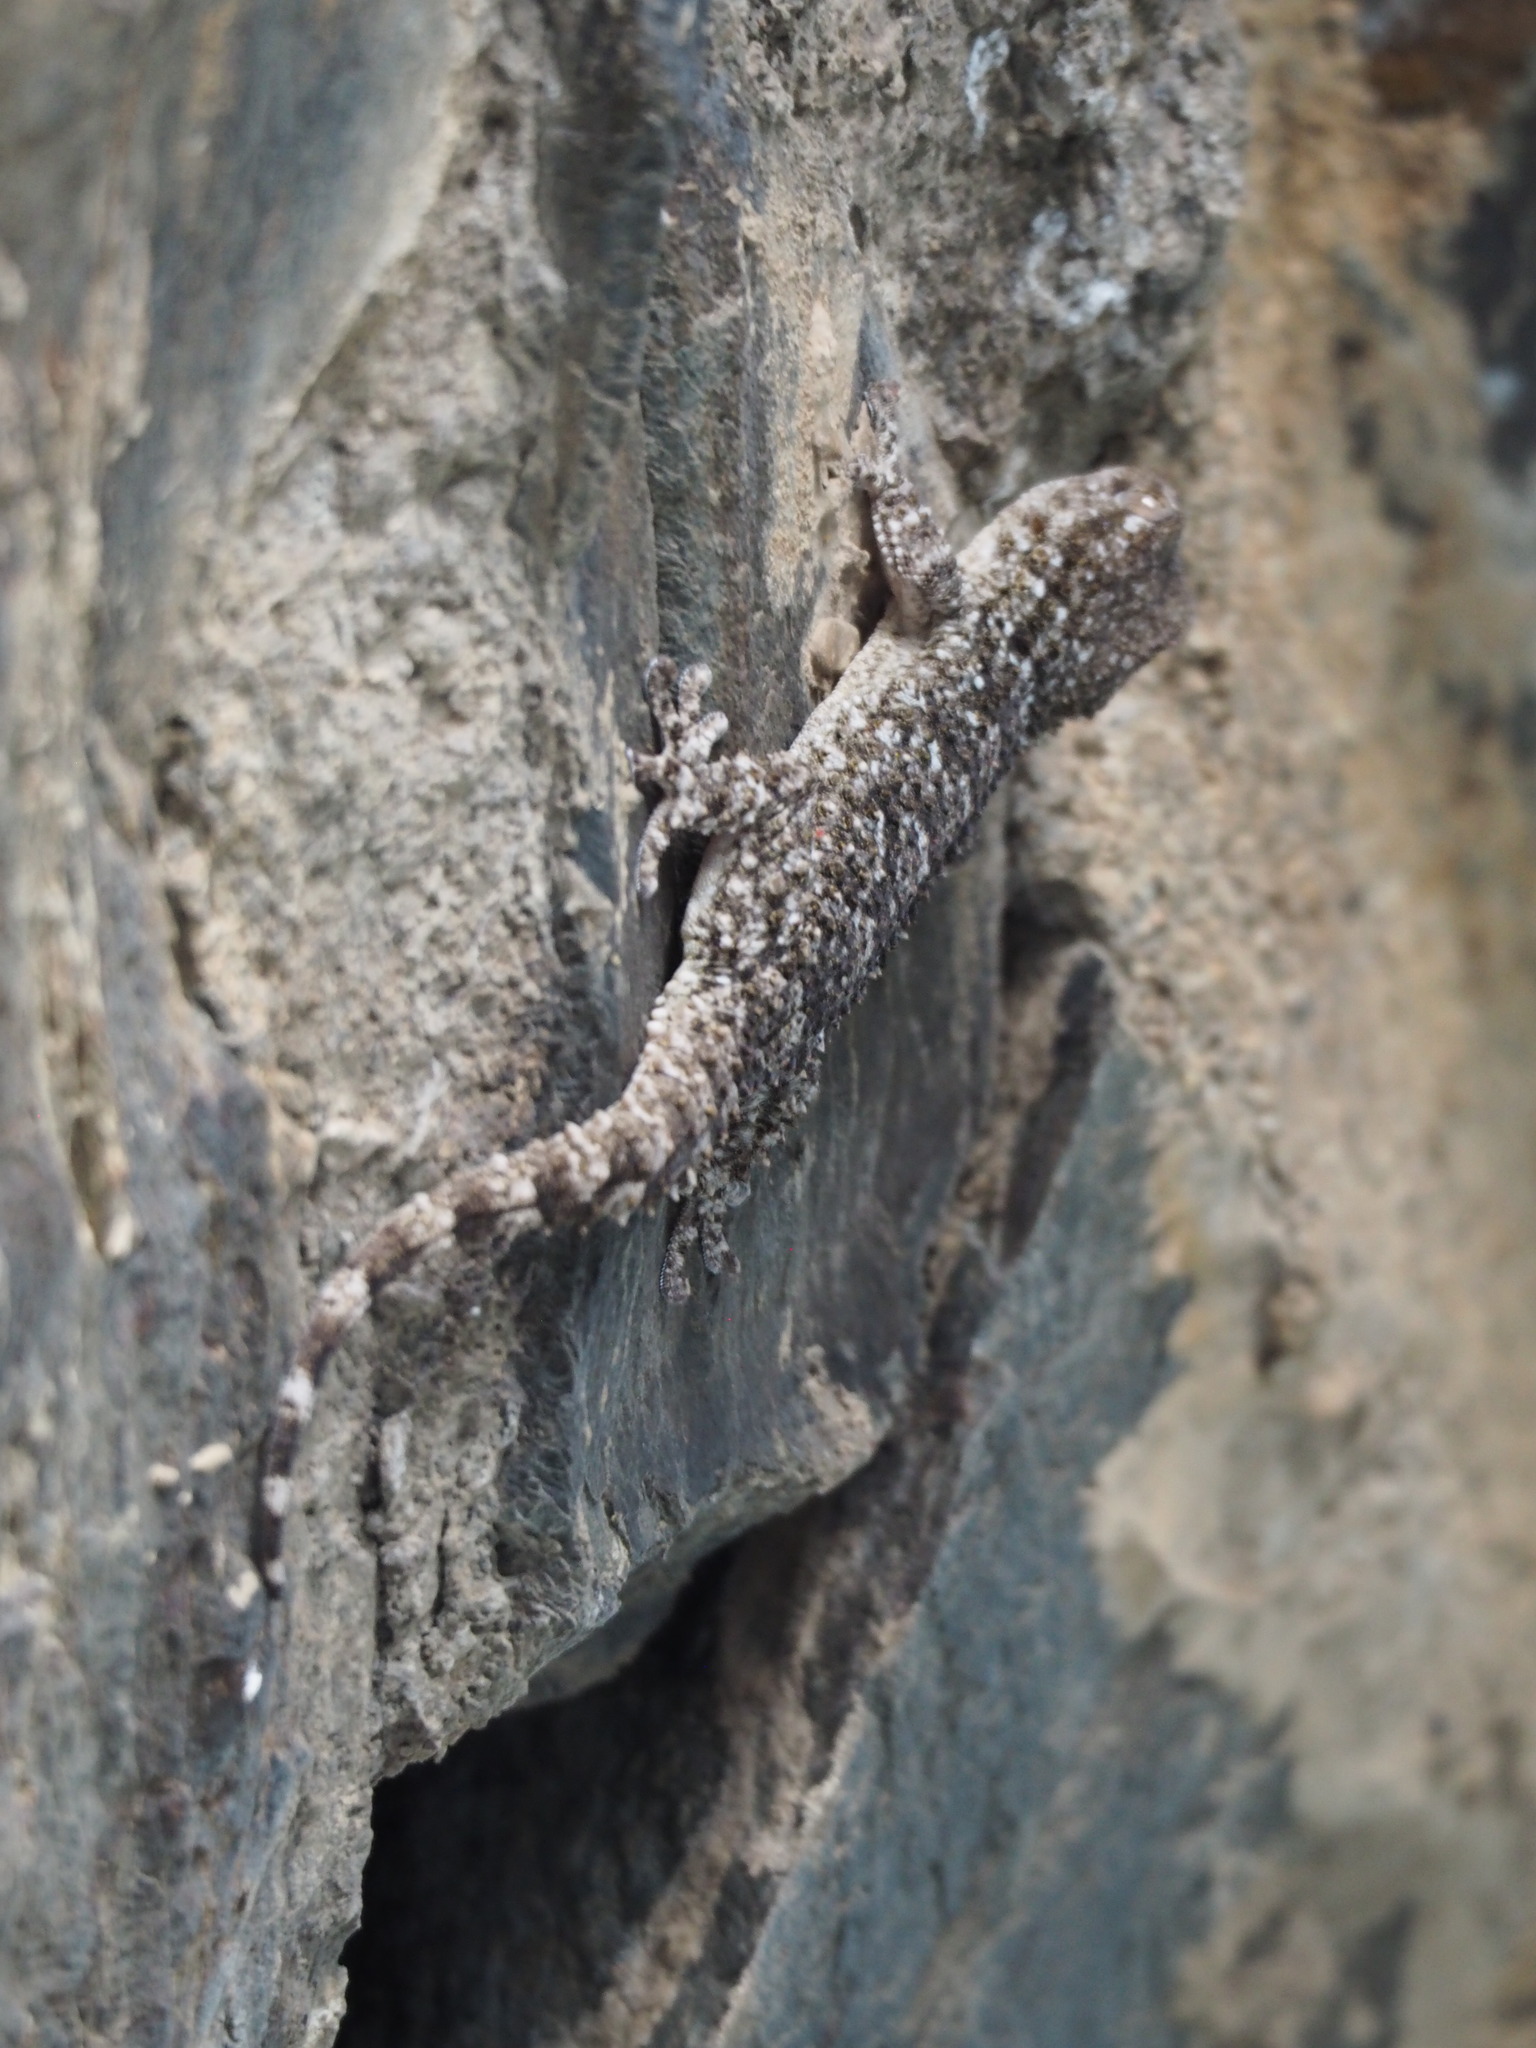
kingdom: Animalia
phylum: Chordata
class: Squamata
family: Phyllodactylidae
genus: Tarentola
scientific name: Tarentola mauritanica
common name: Moorish gecko
